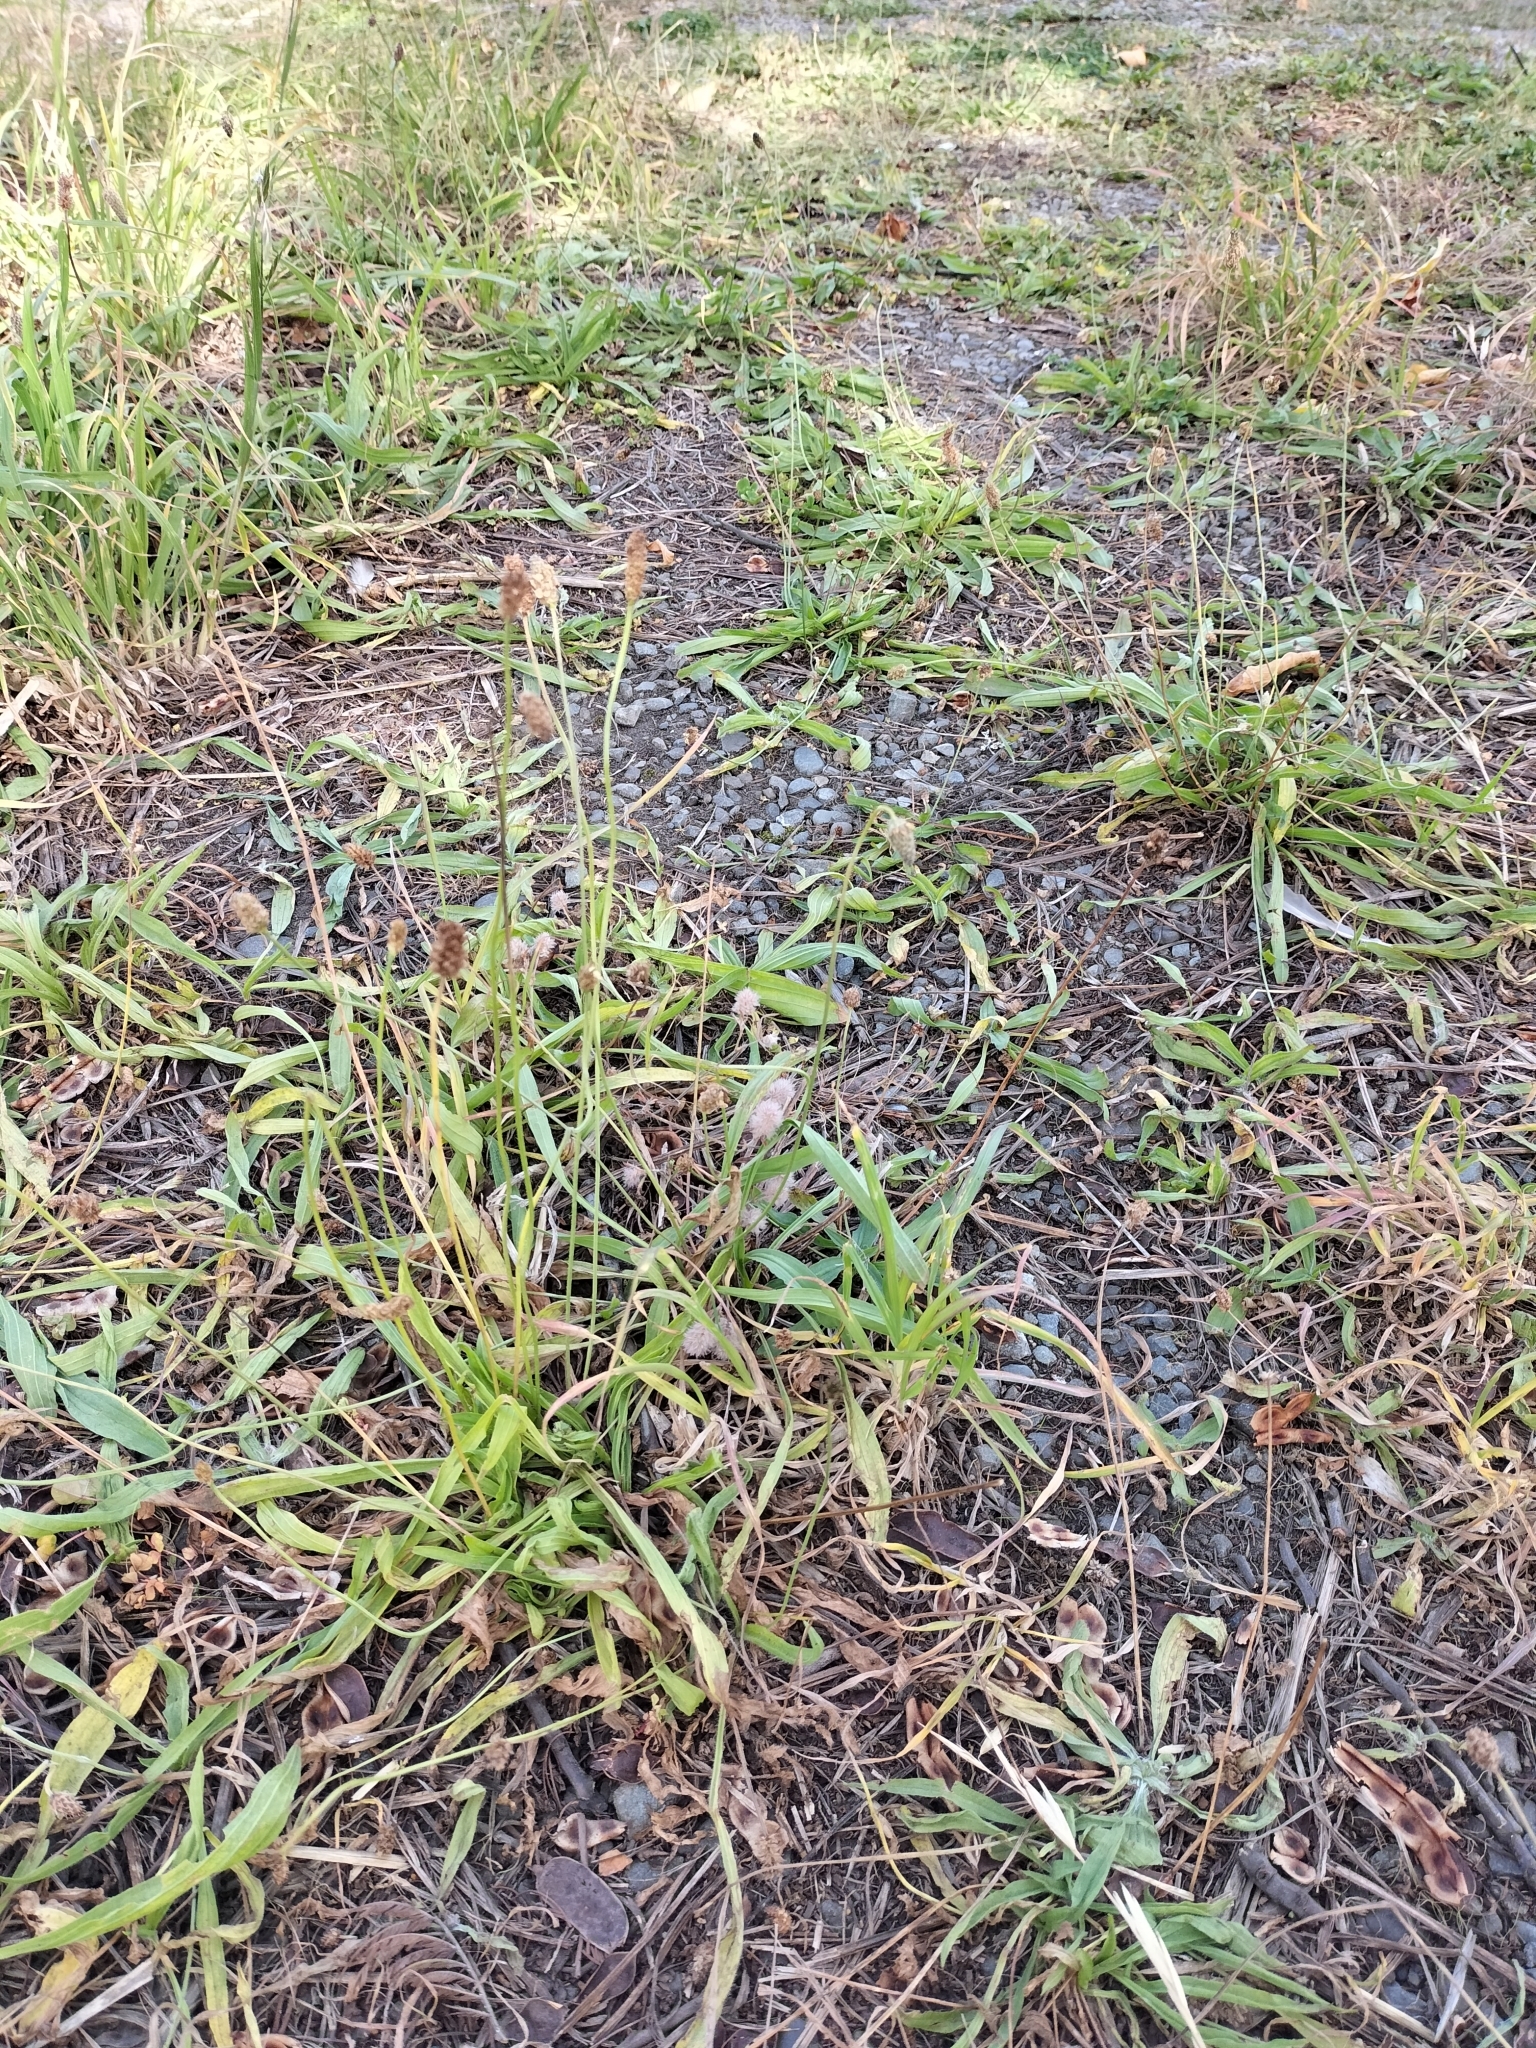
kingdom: Plantae
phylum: Tracheophyta
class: Magnoliopsida
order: Lamiales
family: Plantaginaceae
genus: Plantago
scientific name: Plantago lanceolata
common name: Ribwort plantain
